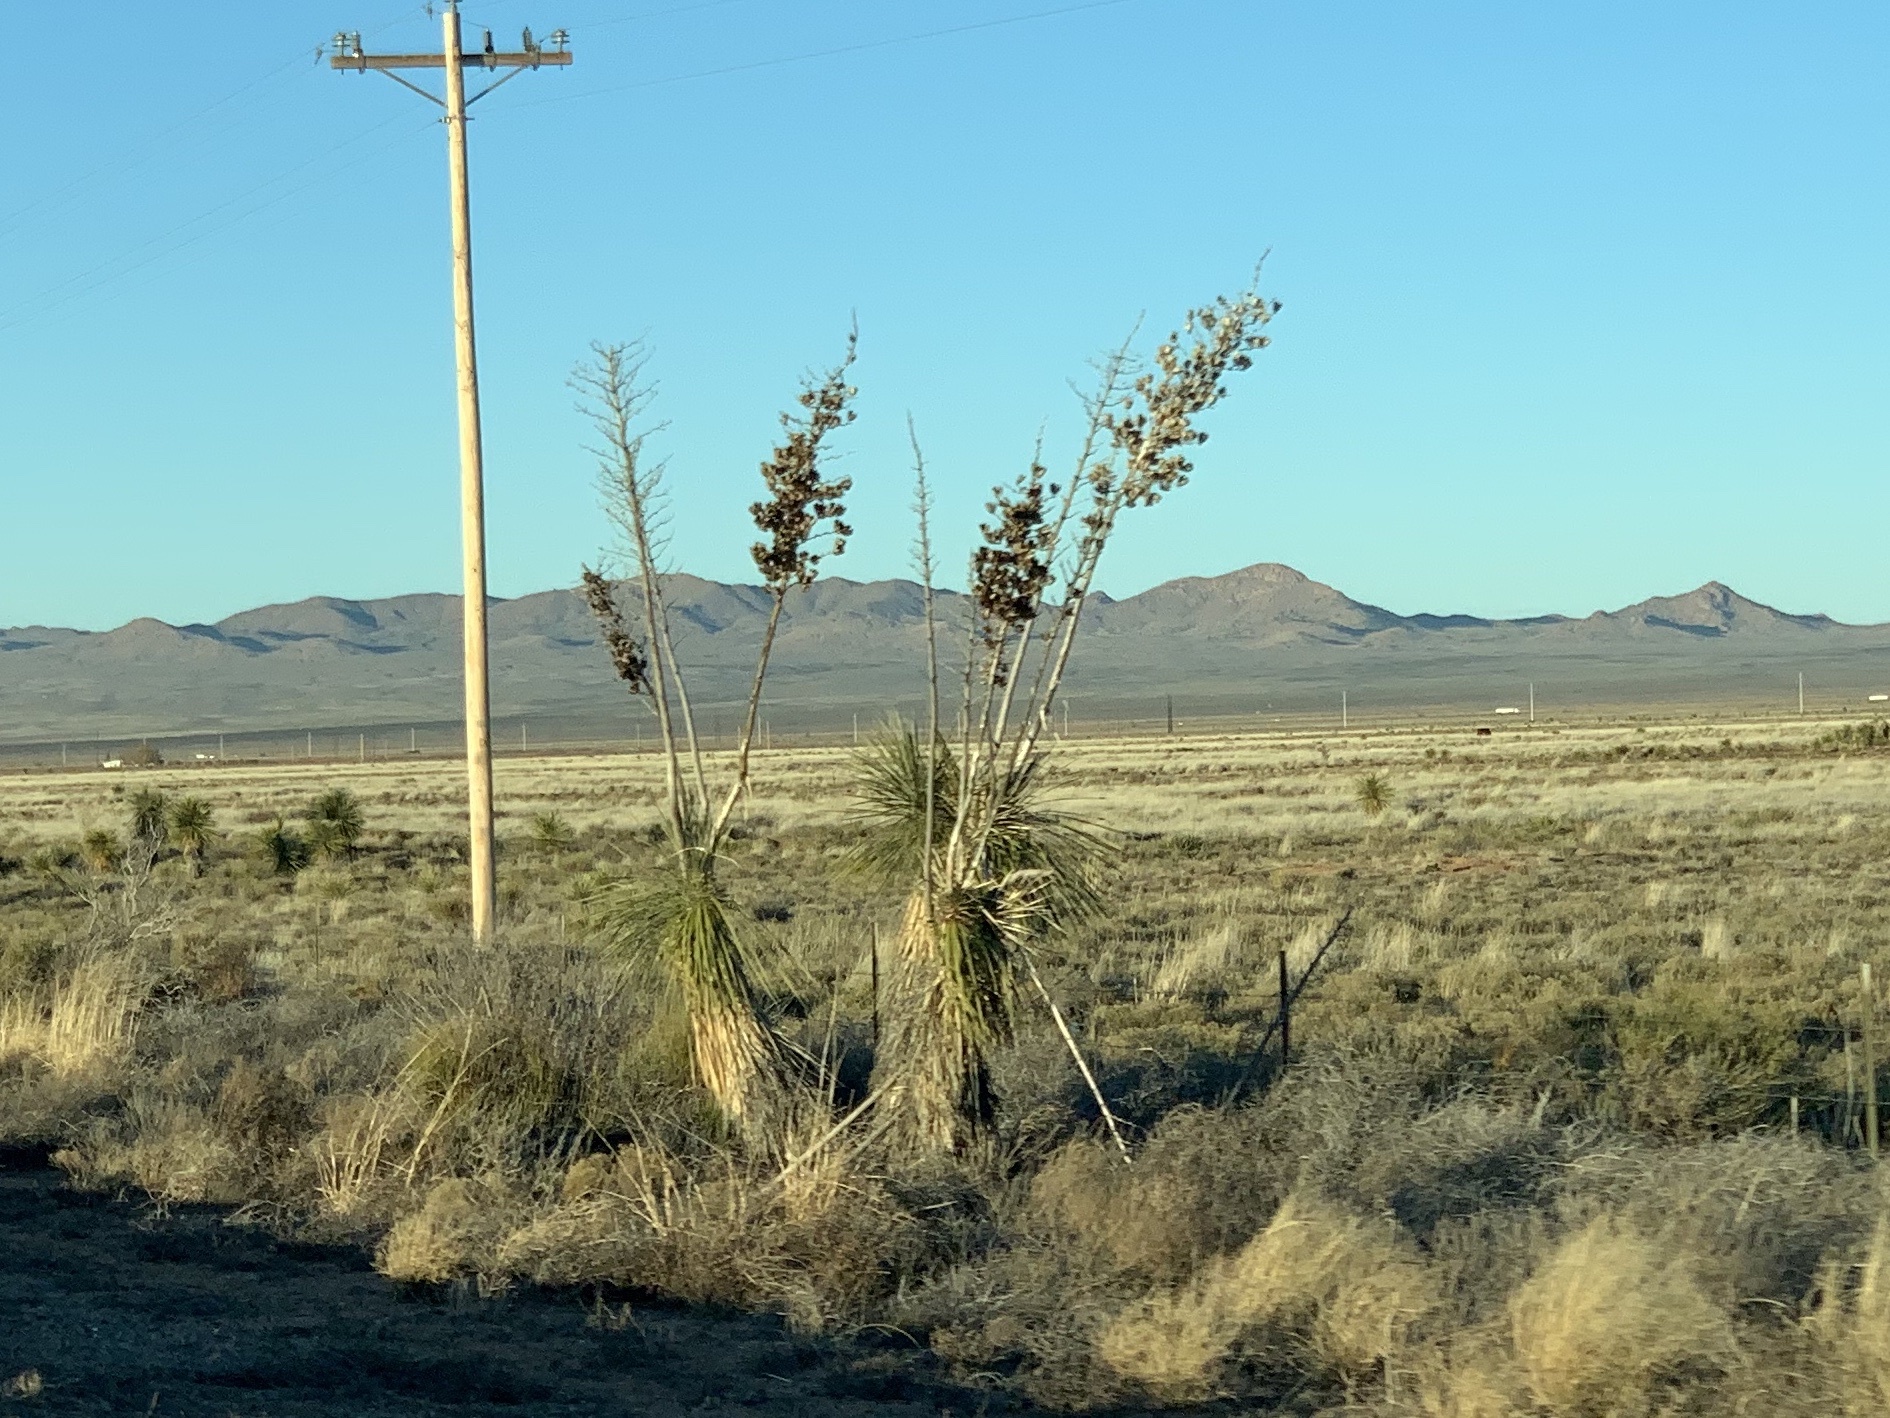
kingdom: Plantae
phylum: Tracheophyta
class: Liliopsida
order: Asparagales
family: Asparagaceae
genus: Yucca
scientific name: Yucca elata
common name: Palmella
